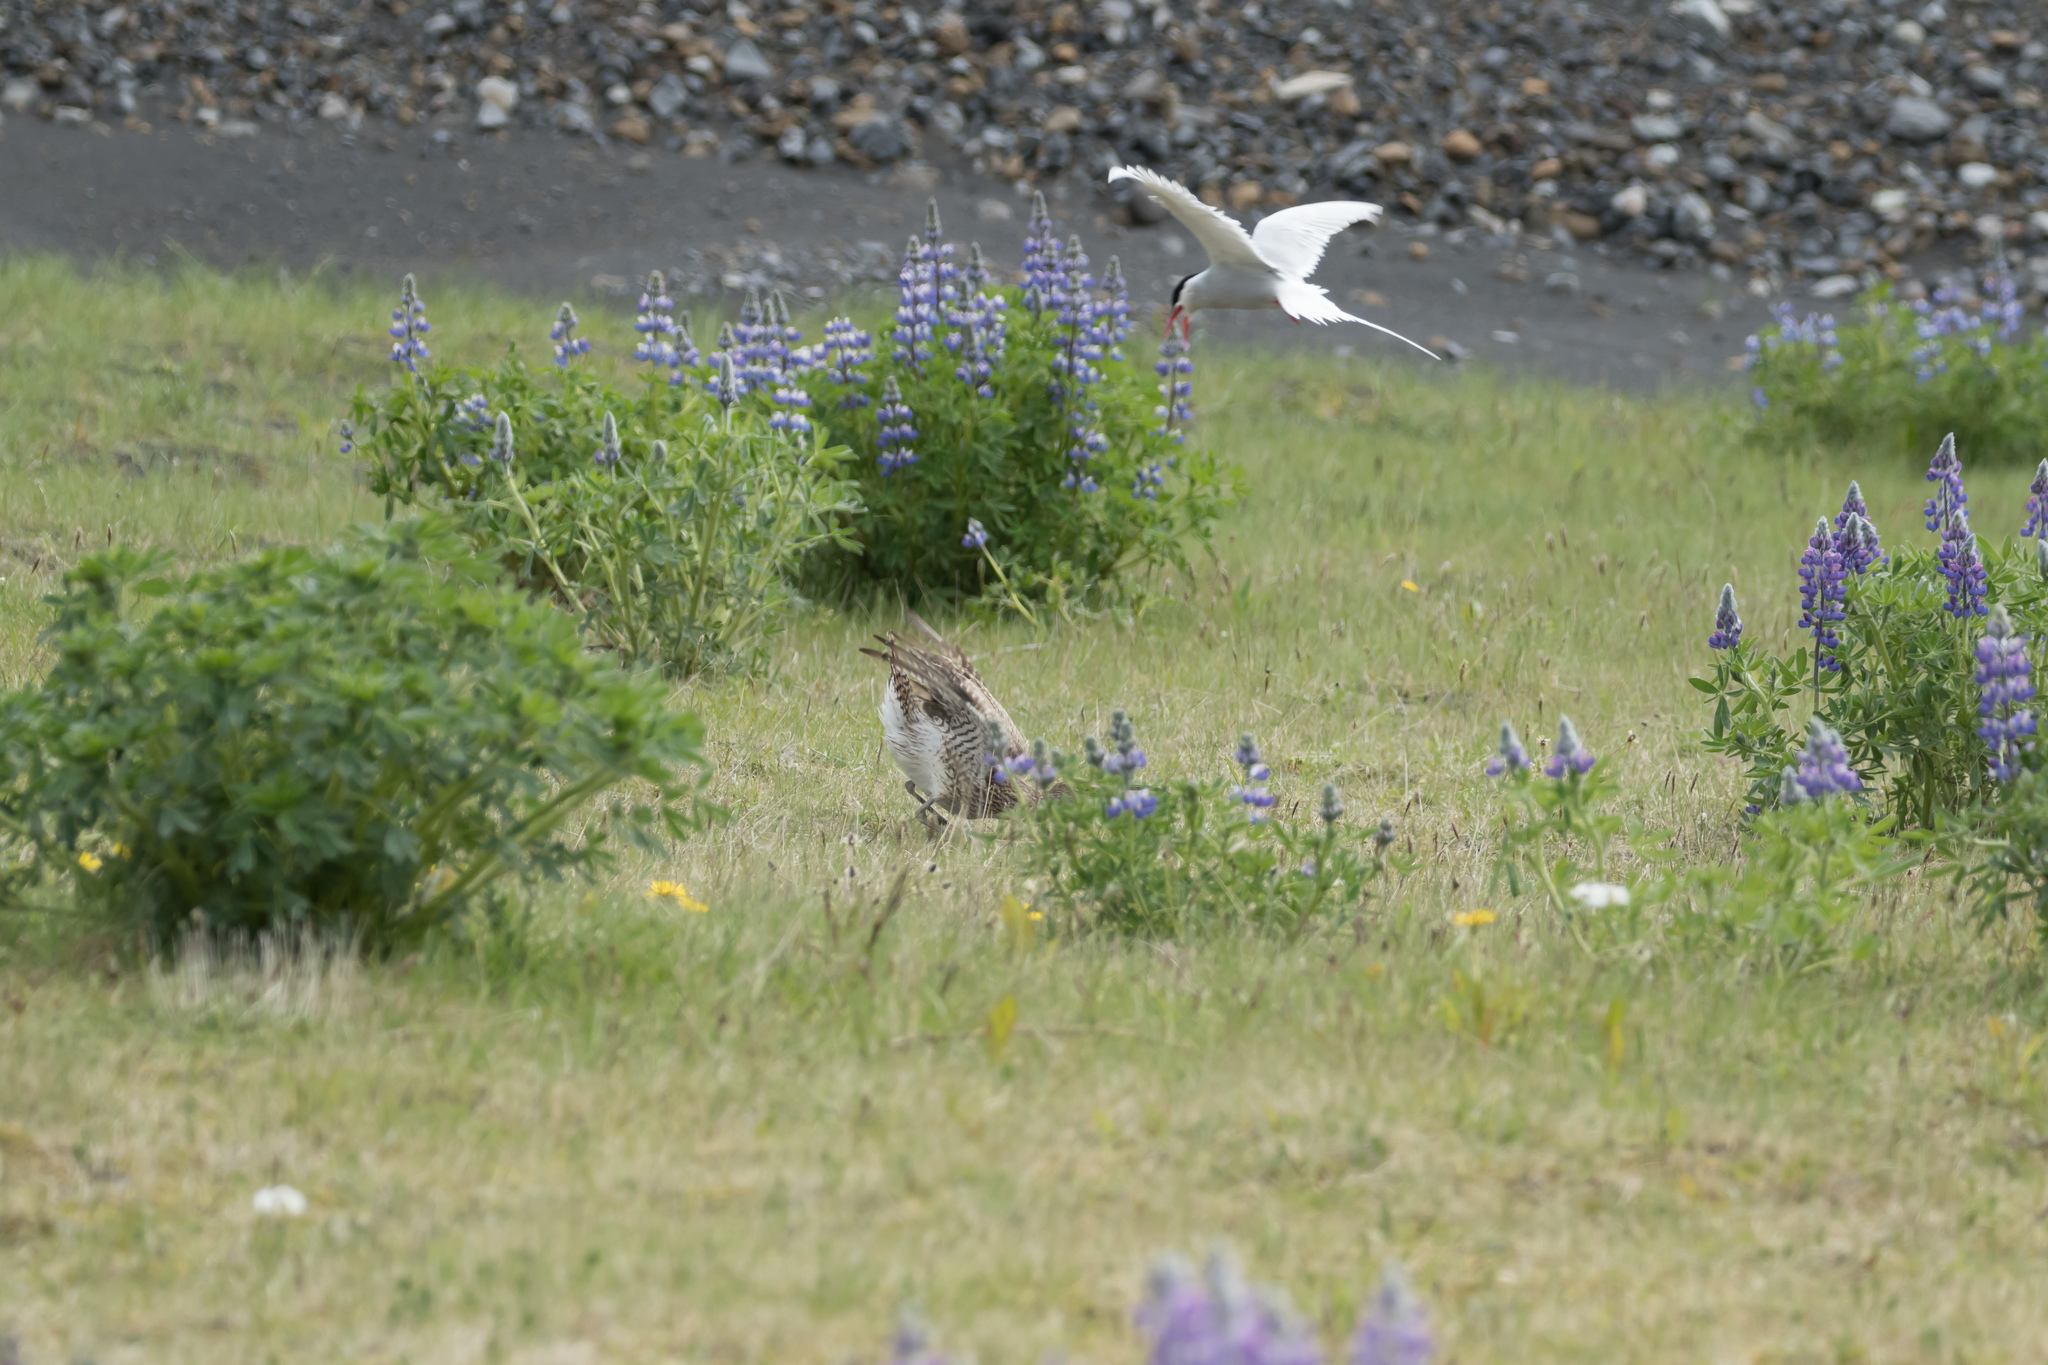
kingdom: Animalia
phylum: Chordata
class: Aves
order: Charadriiformes
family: Scolopacidae
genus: Numenius
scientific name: Numenius phaeopus
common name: Whimbrel
